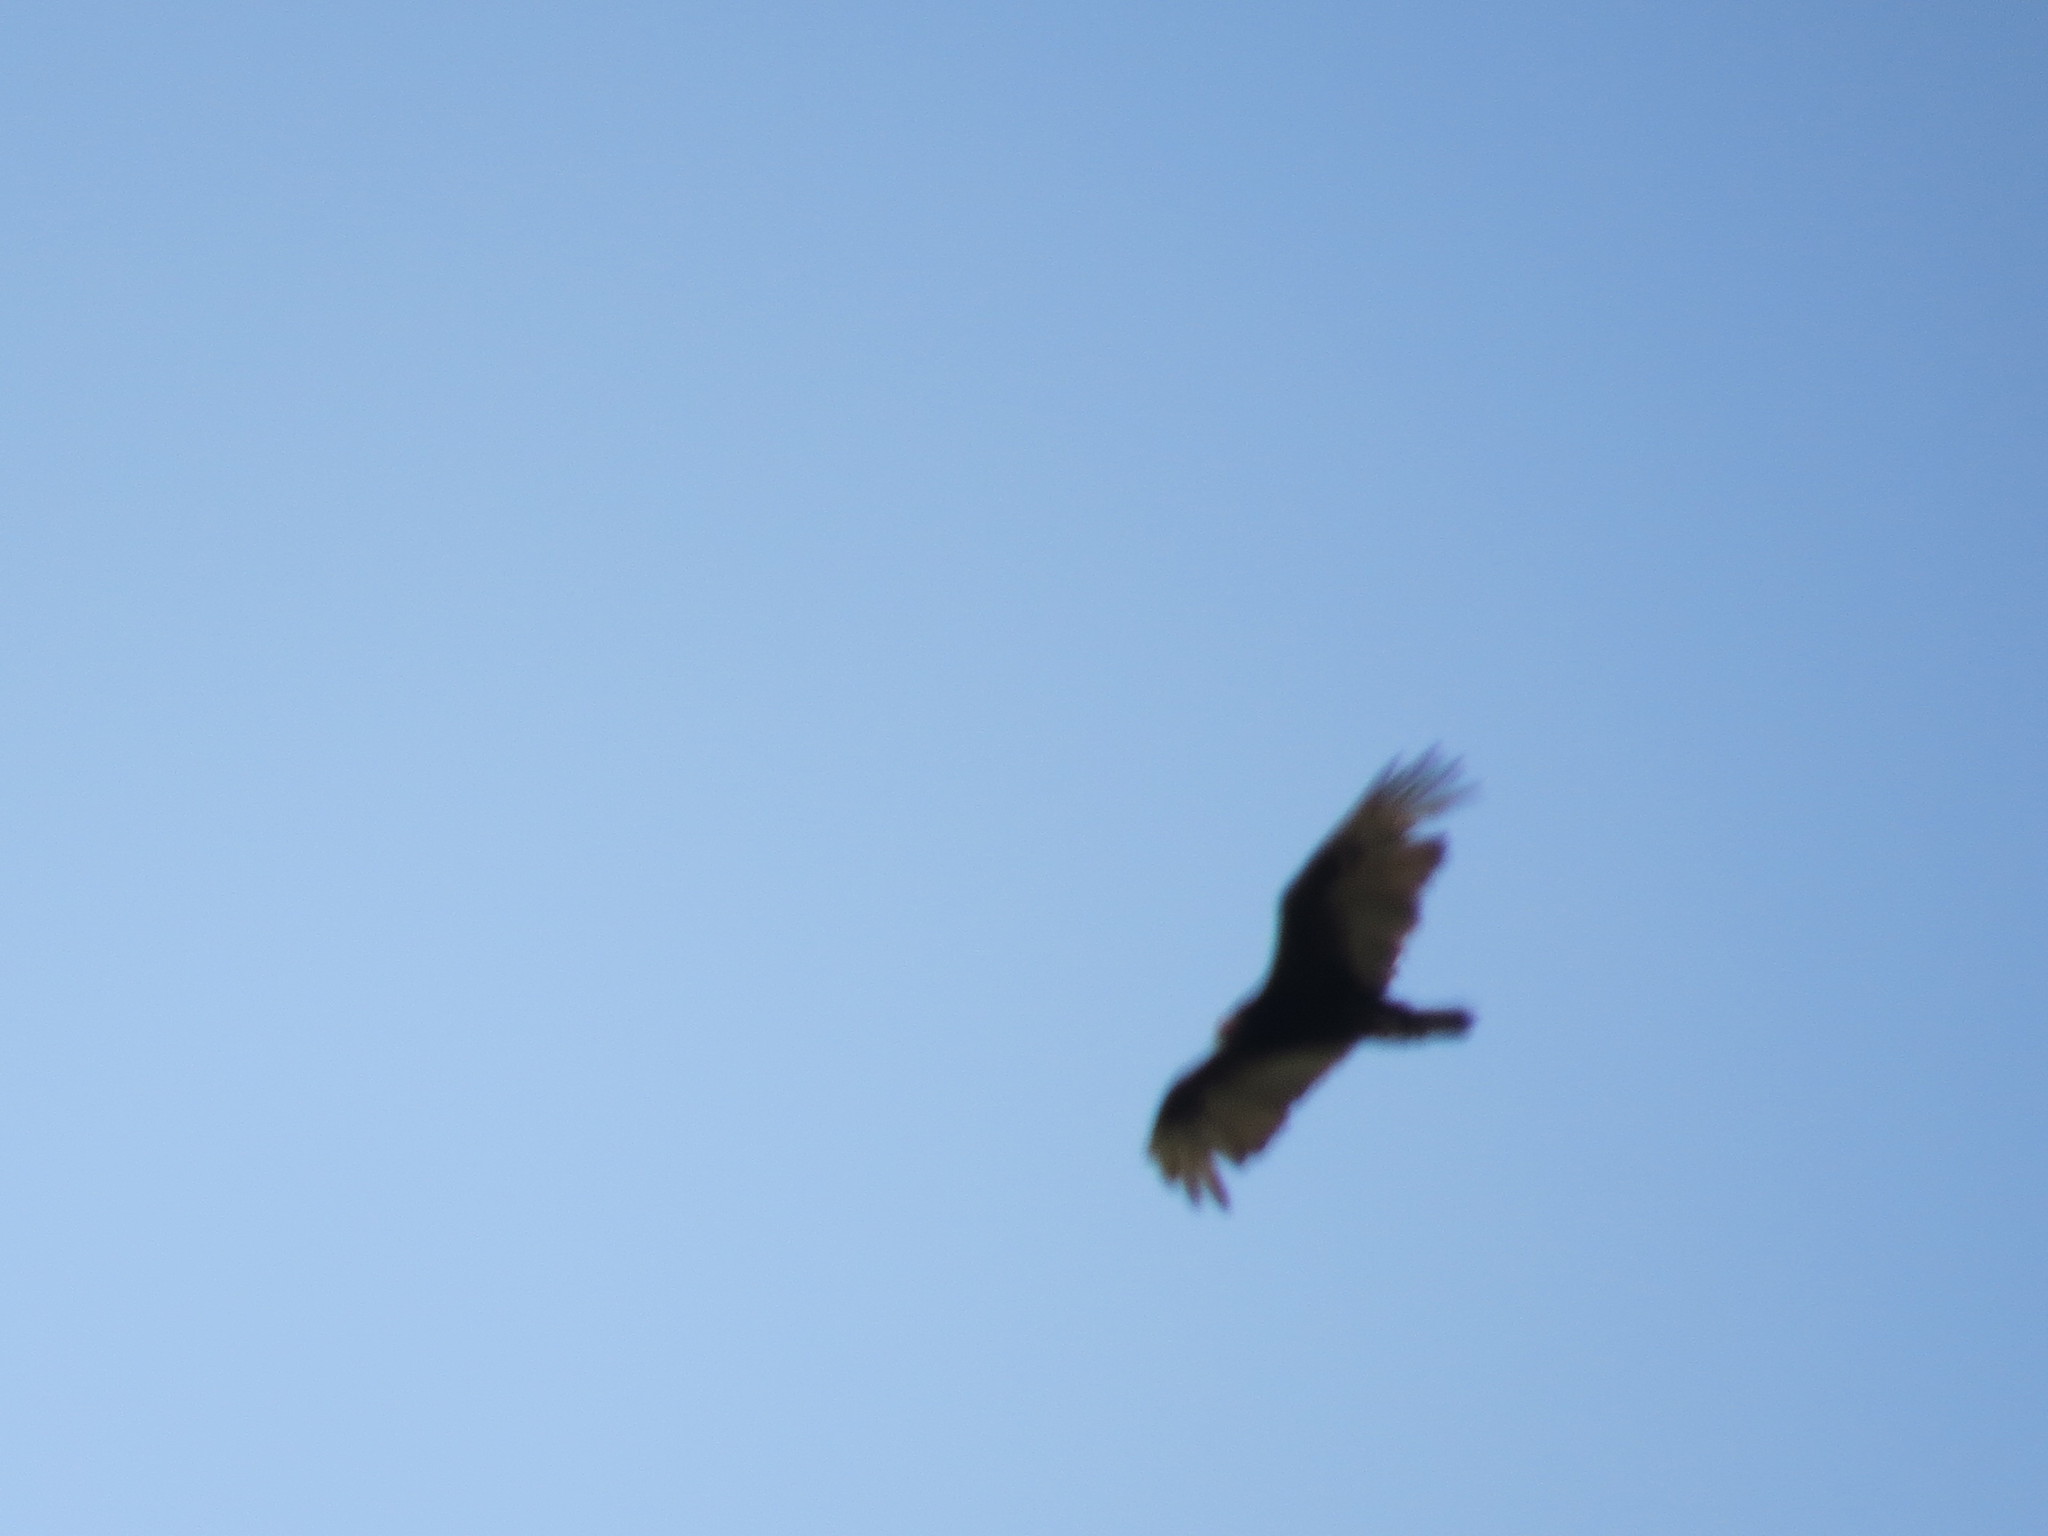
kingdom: Animalia
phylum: Chordata
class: Aves
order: Accipitriformes
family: Cathartidae
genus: Cathartes
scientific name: Cathartes aura
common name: Turkey vulture
